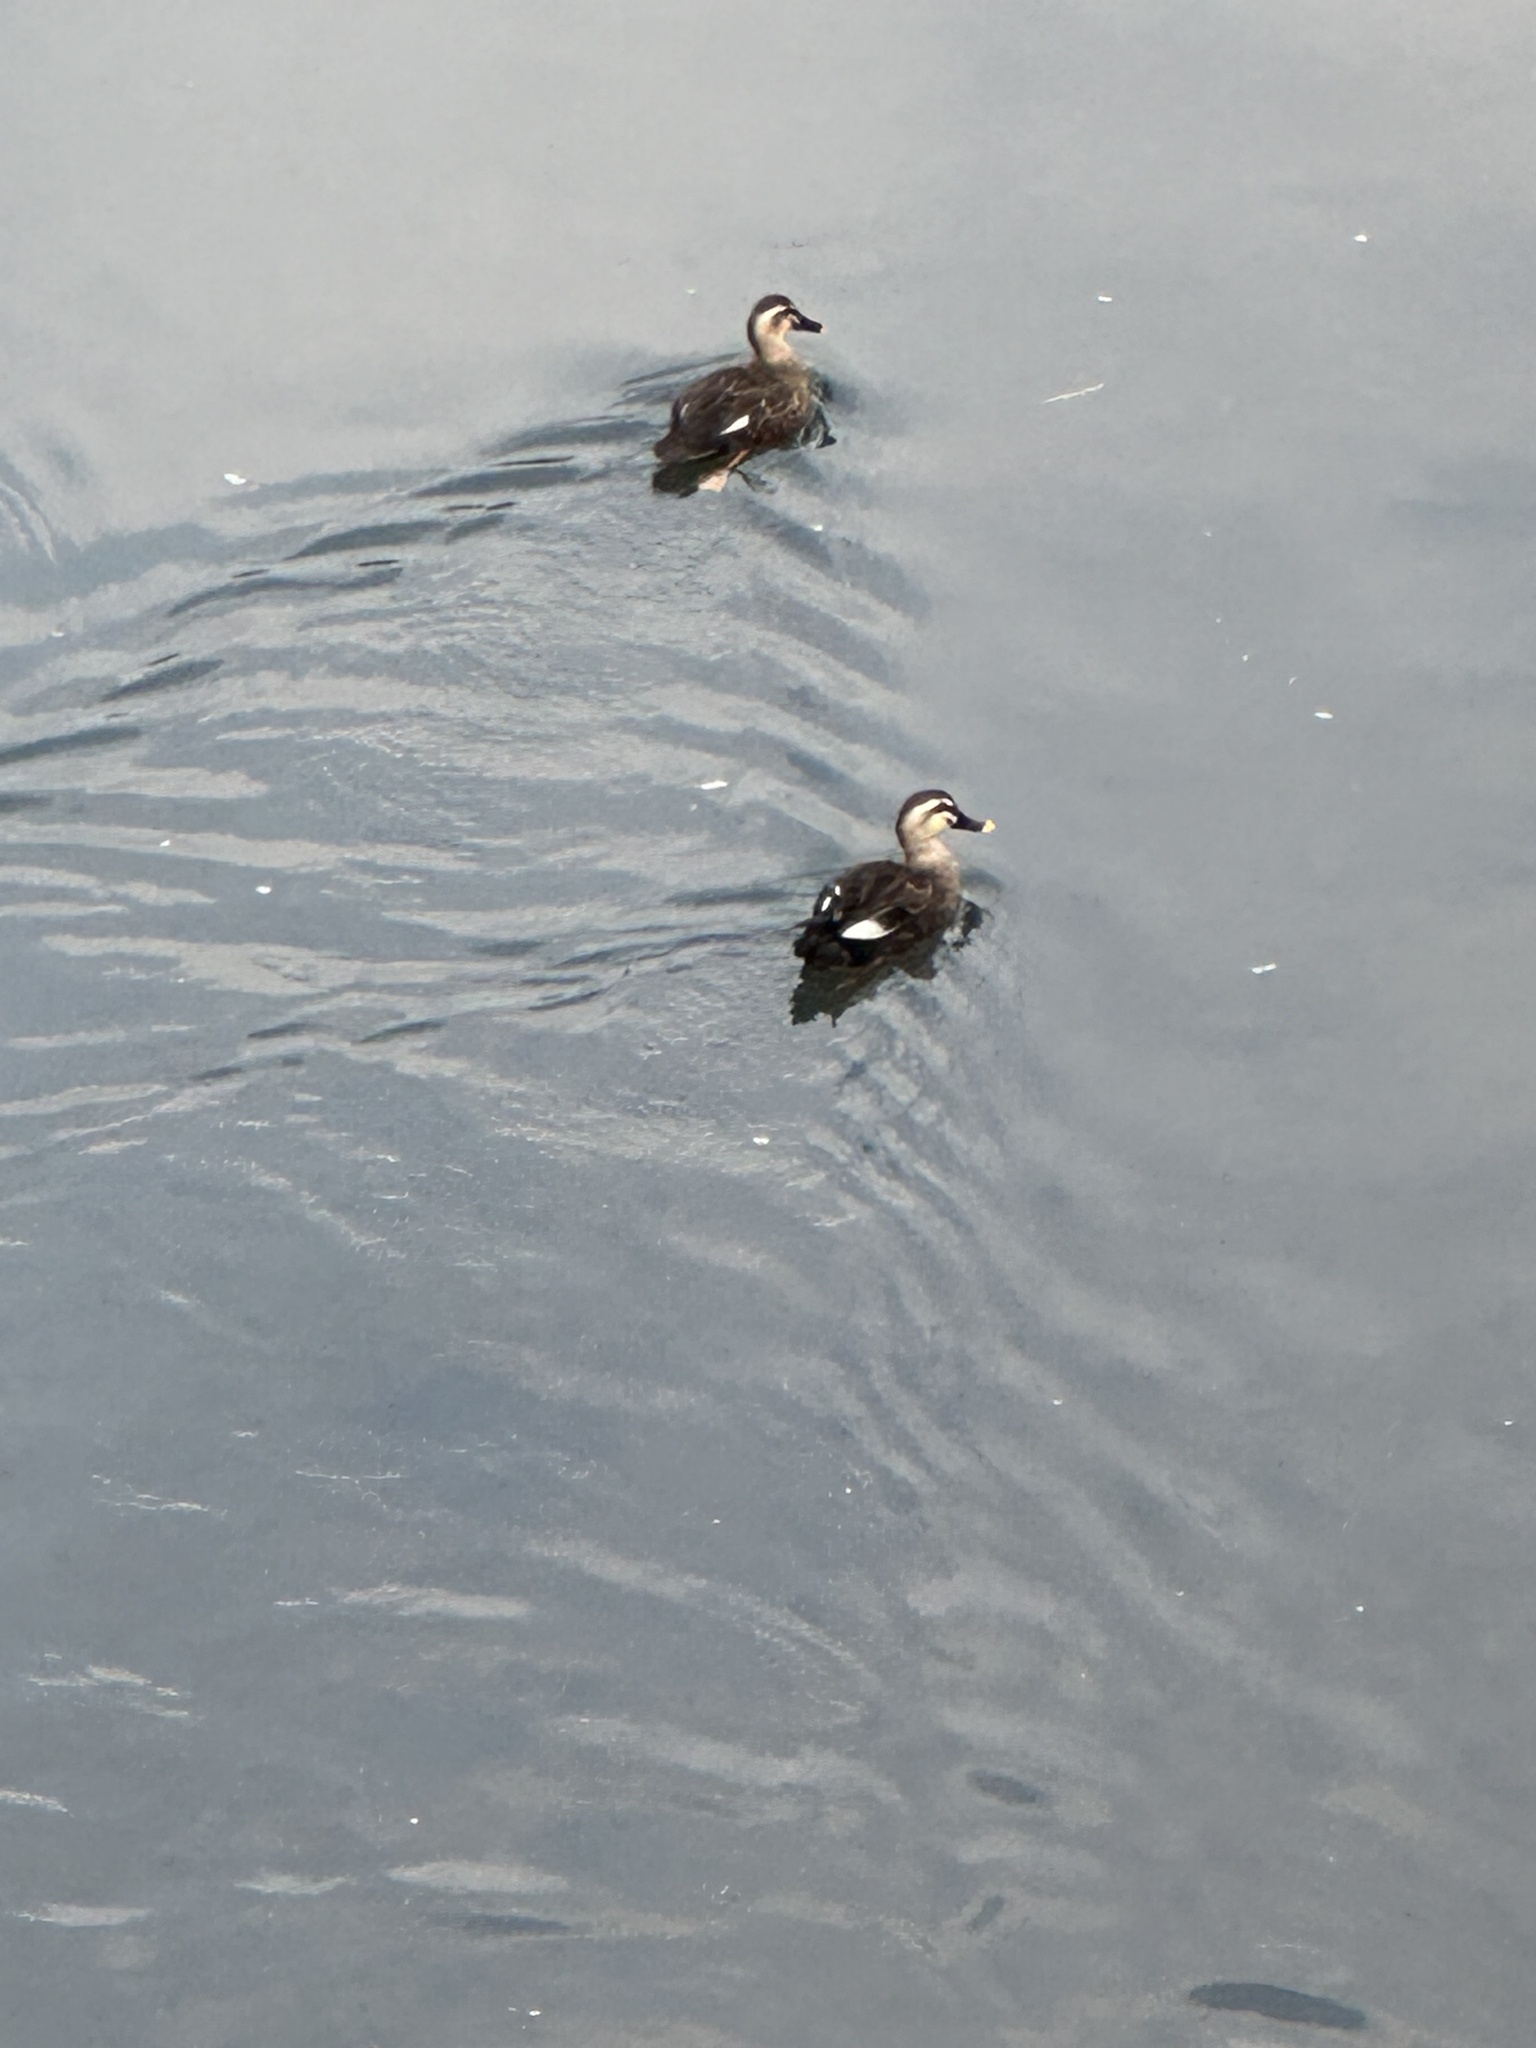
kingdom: Animalia
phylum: Chordata
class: Aves
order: Anseriformes
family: Anatidae
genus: Anas
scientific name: Anas zonorhyncha
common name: Eastern spot-billed duck
